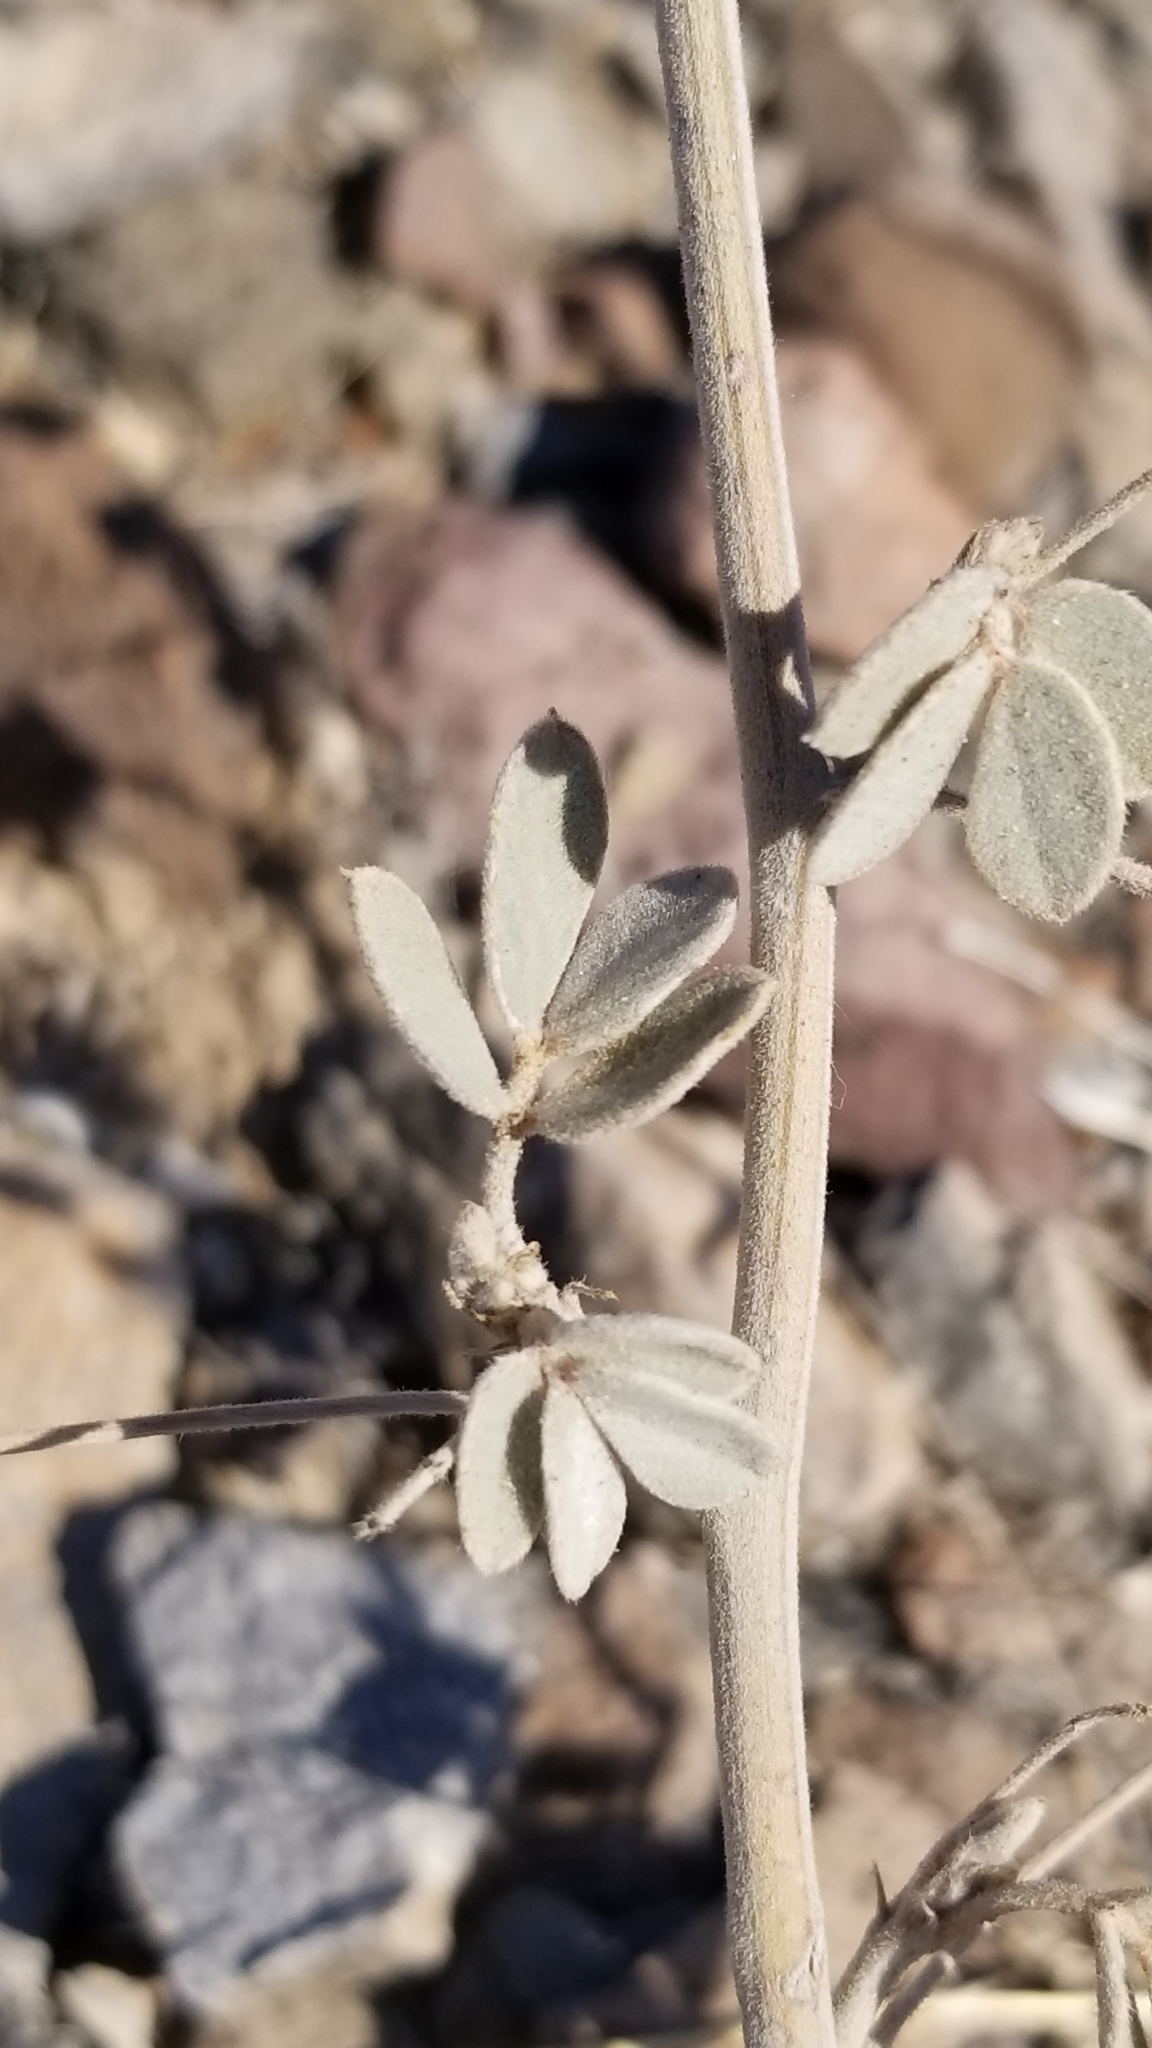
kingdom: Plantae
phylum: Tracheophyta
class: Magnoliopsida
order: Fabales
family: Fabaceae
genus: Senna
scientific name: Senna covesii
